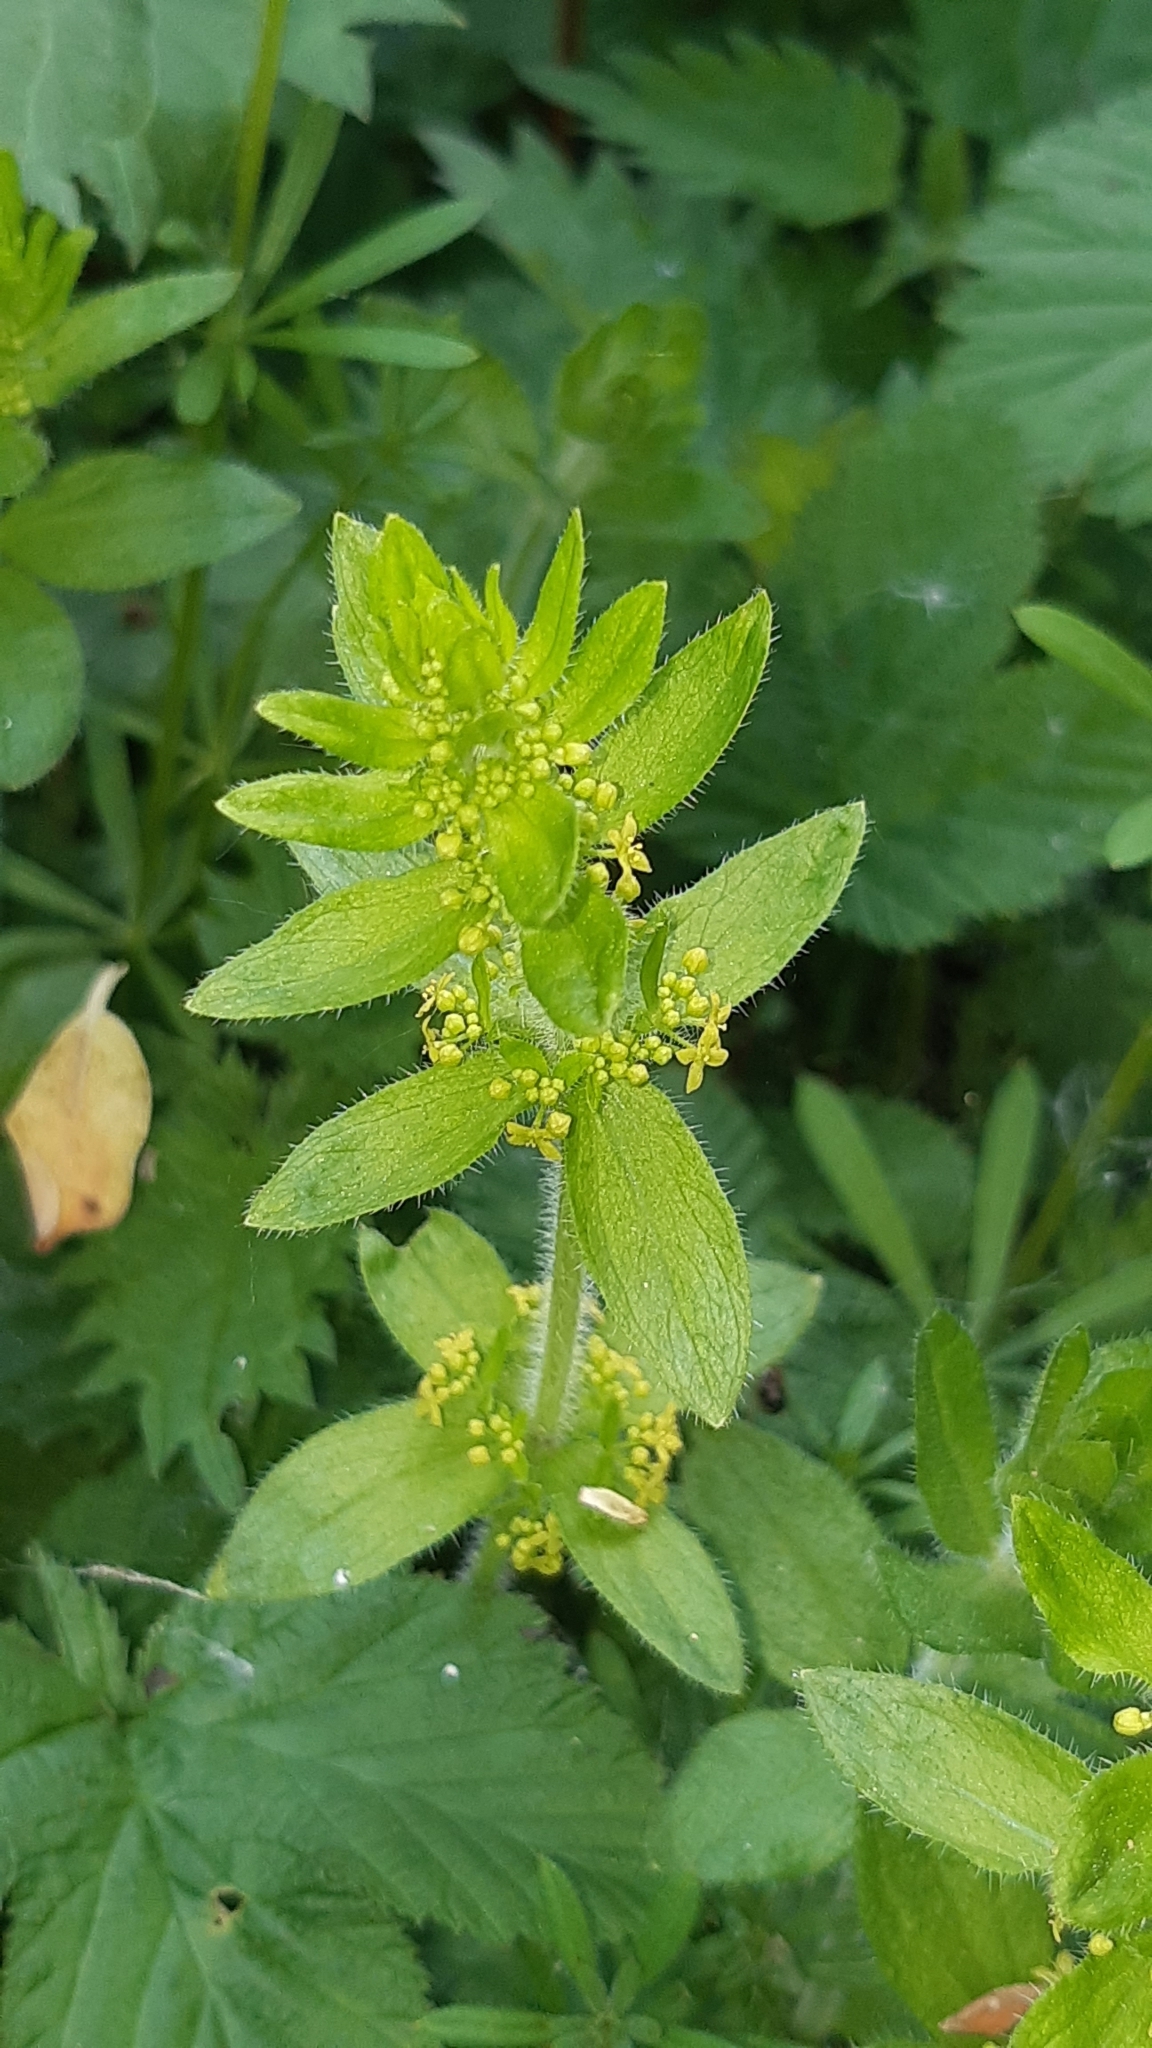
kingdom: Plantae
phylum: Tracheophyta
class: Magnoliopsida
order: Gentianales
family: Rubiaceae
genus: Cruciata
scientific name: Cruciata laevipes
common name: Crosswort
